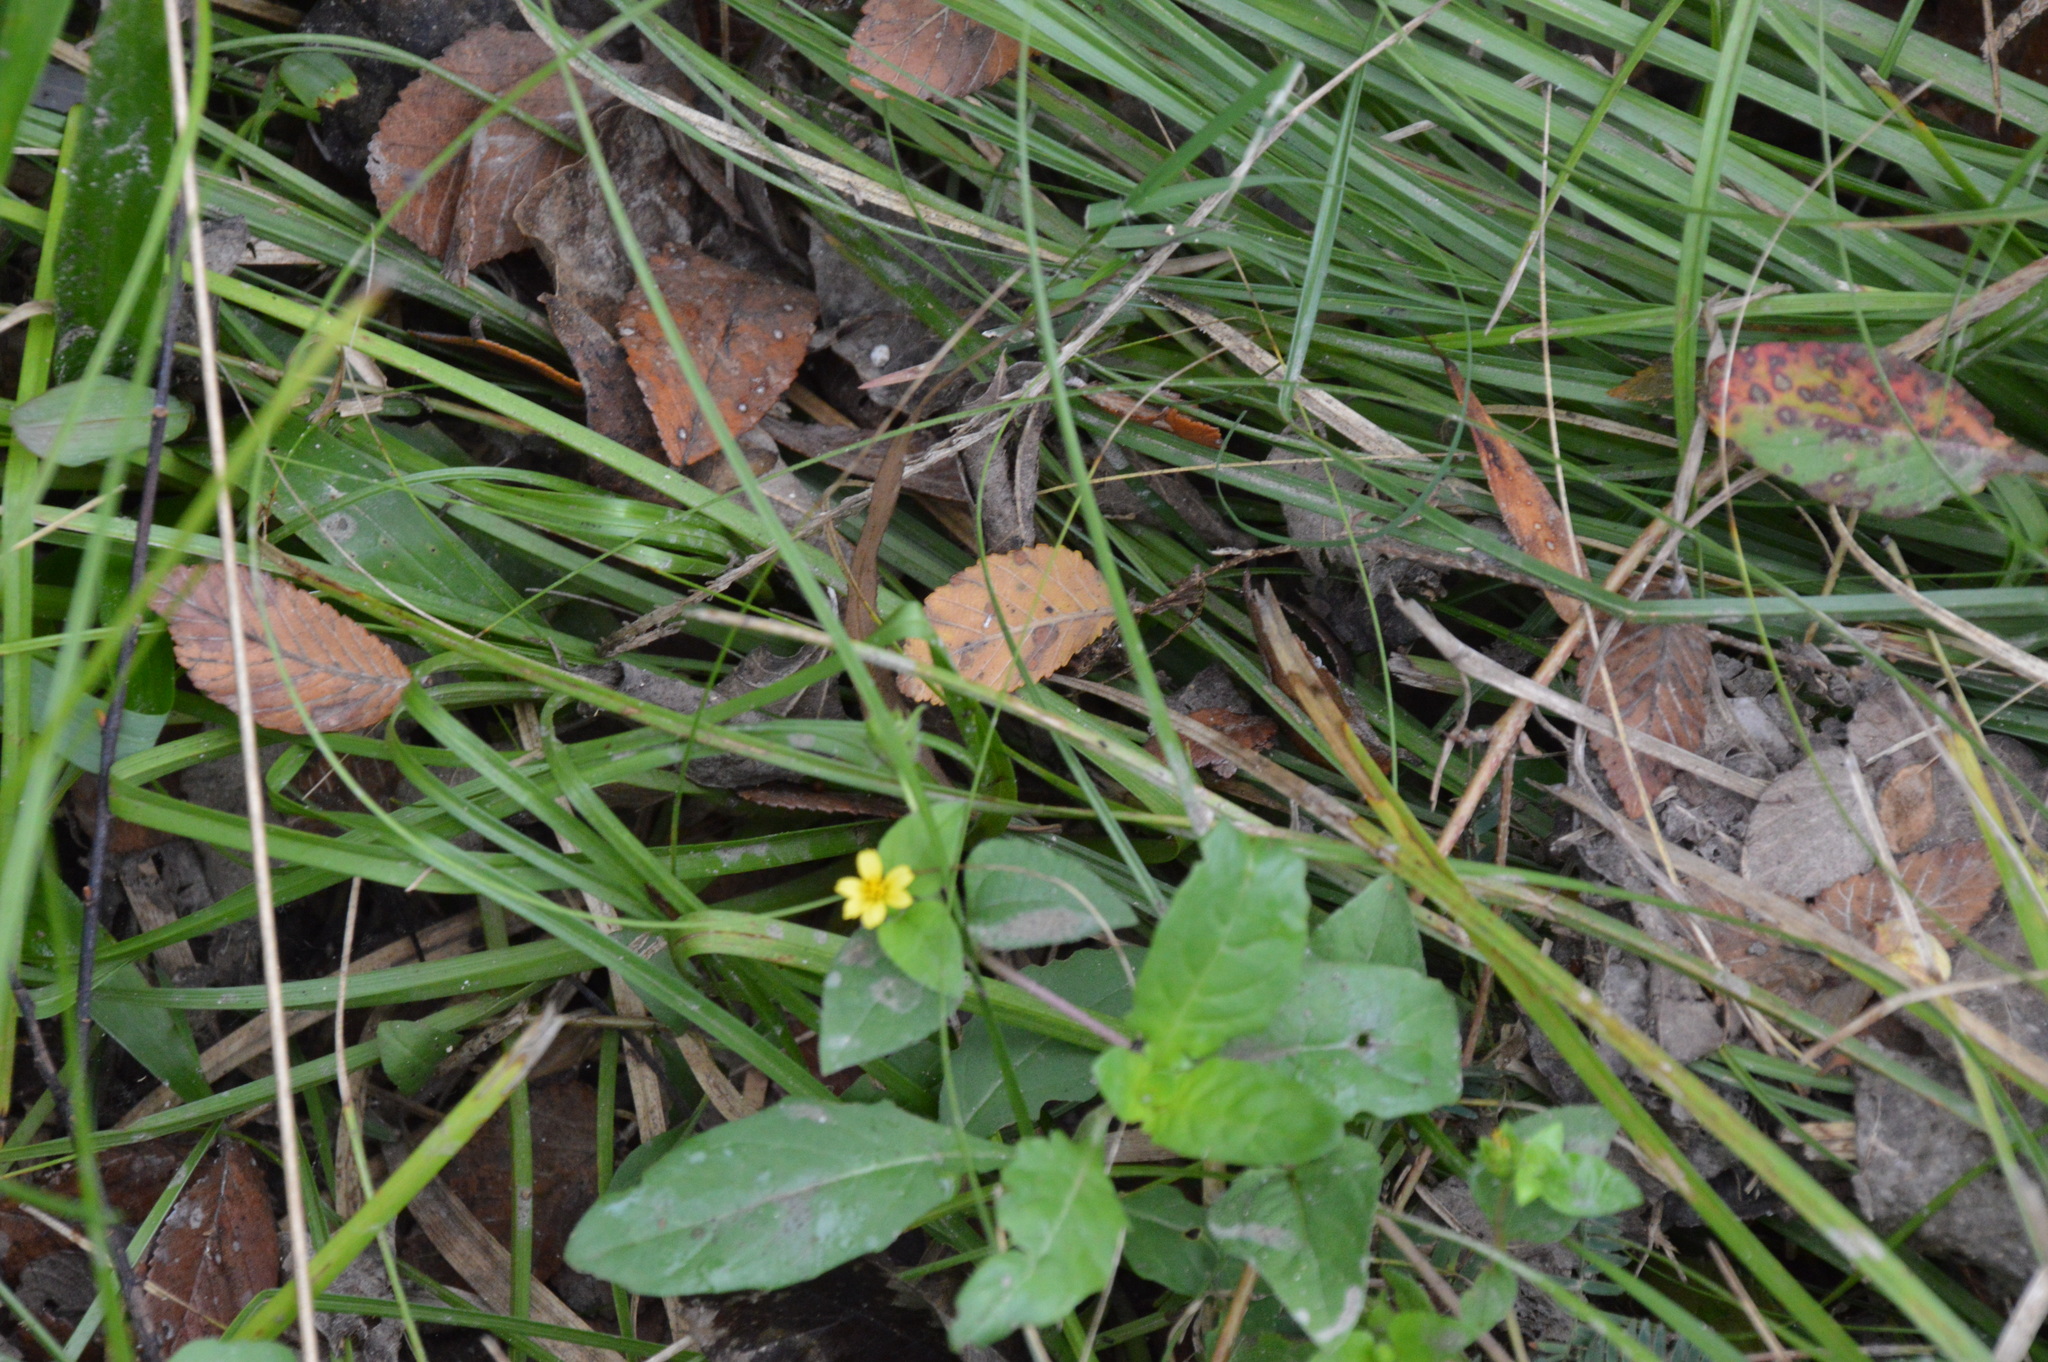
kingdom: Plantae
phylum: Tracheophyta
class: Magnoliopsida
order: Asterales
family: Asteraceae
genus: Calyptocarpus
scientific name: Calyptocarpus vialis
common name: Straggler daisy
